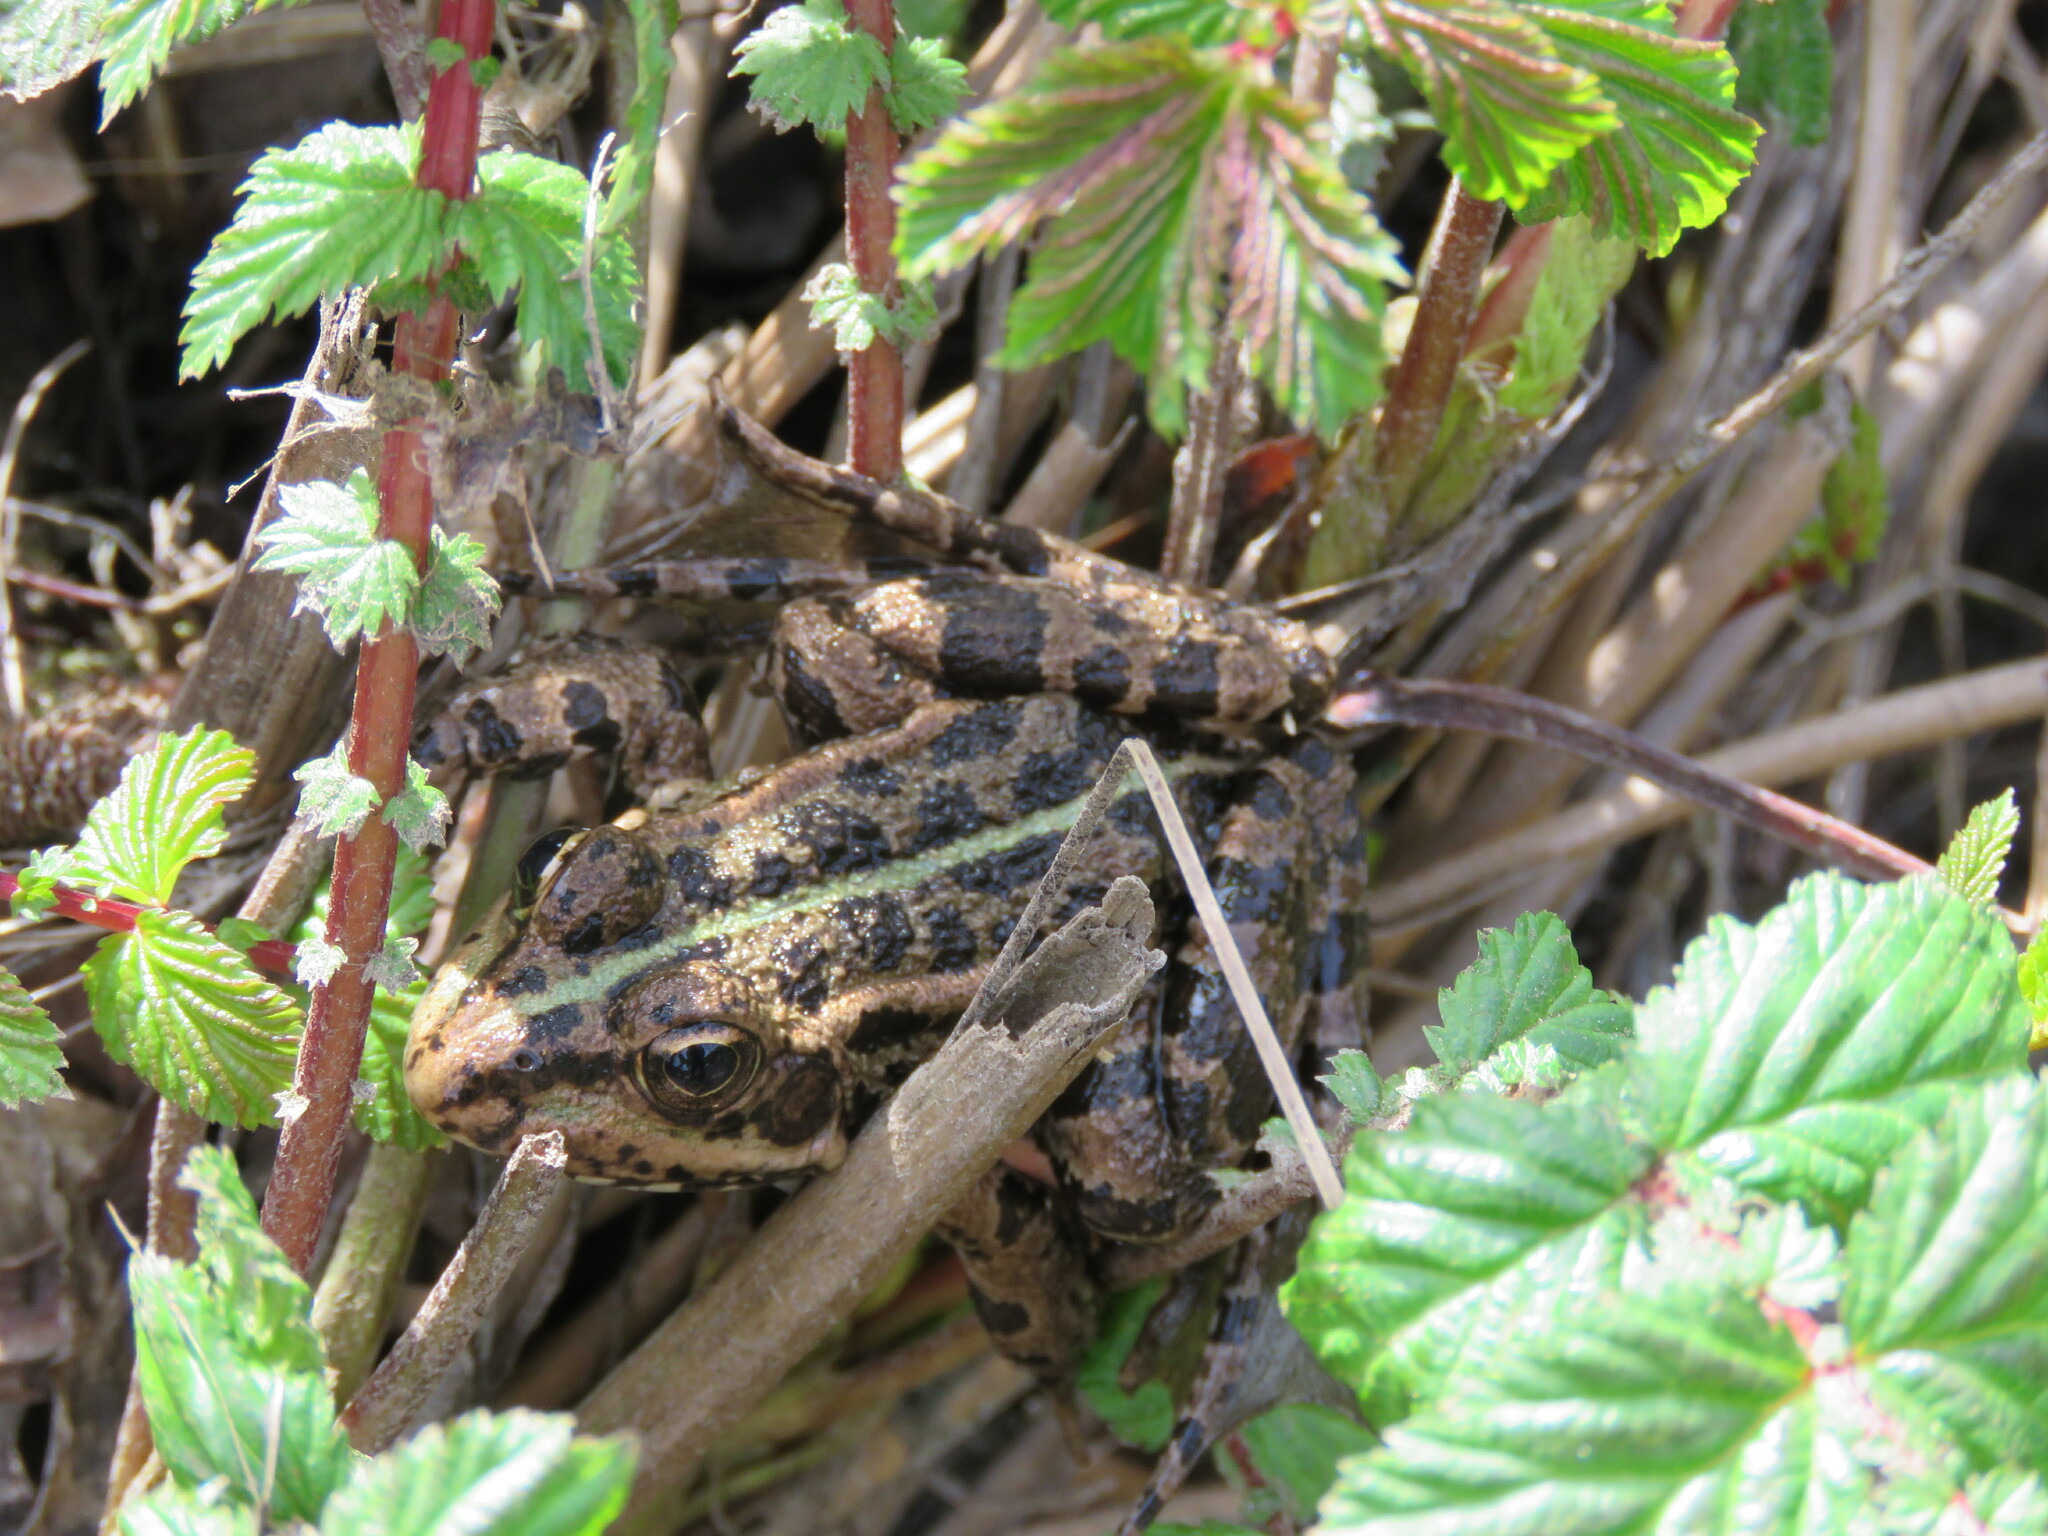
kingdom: Animalia
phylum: Chordata
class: Amphibia
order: Anura
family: Ranidae
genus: Pelophylax
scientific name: Pelophylax perezi
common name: Perez's frog
